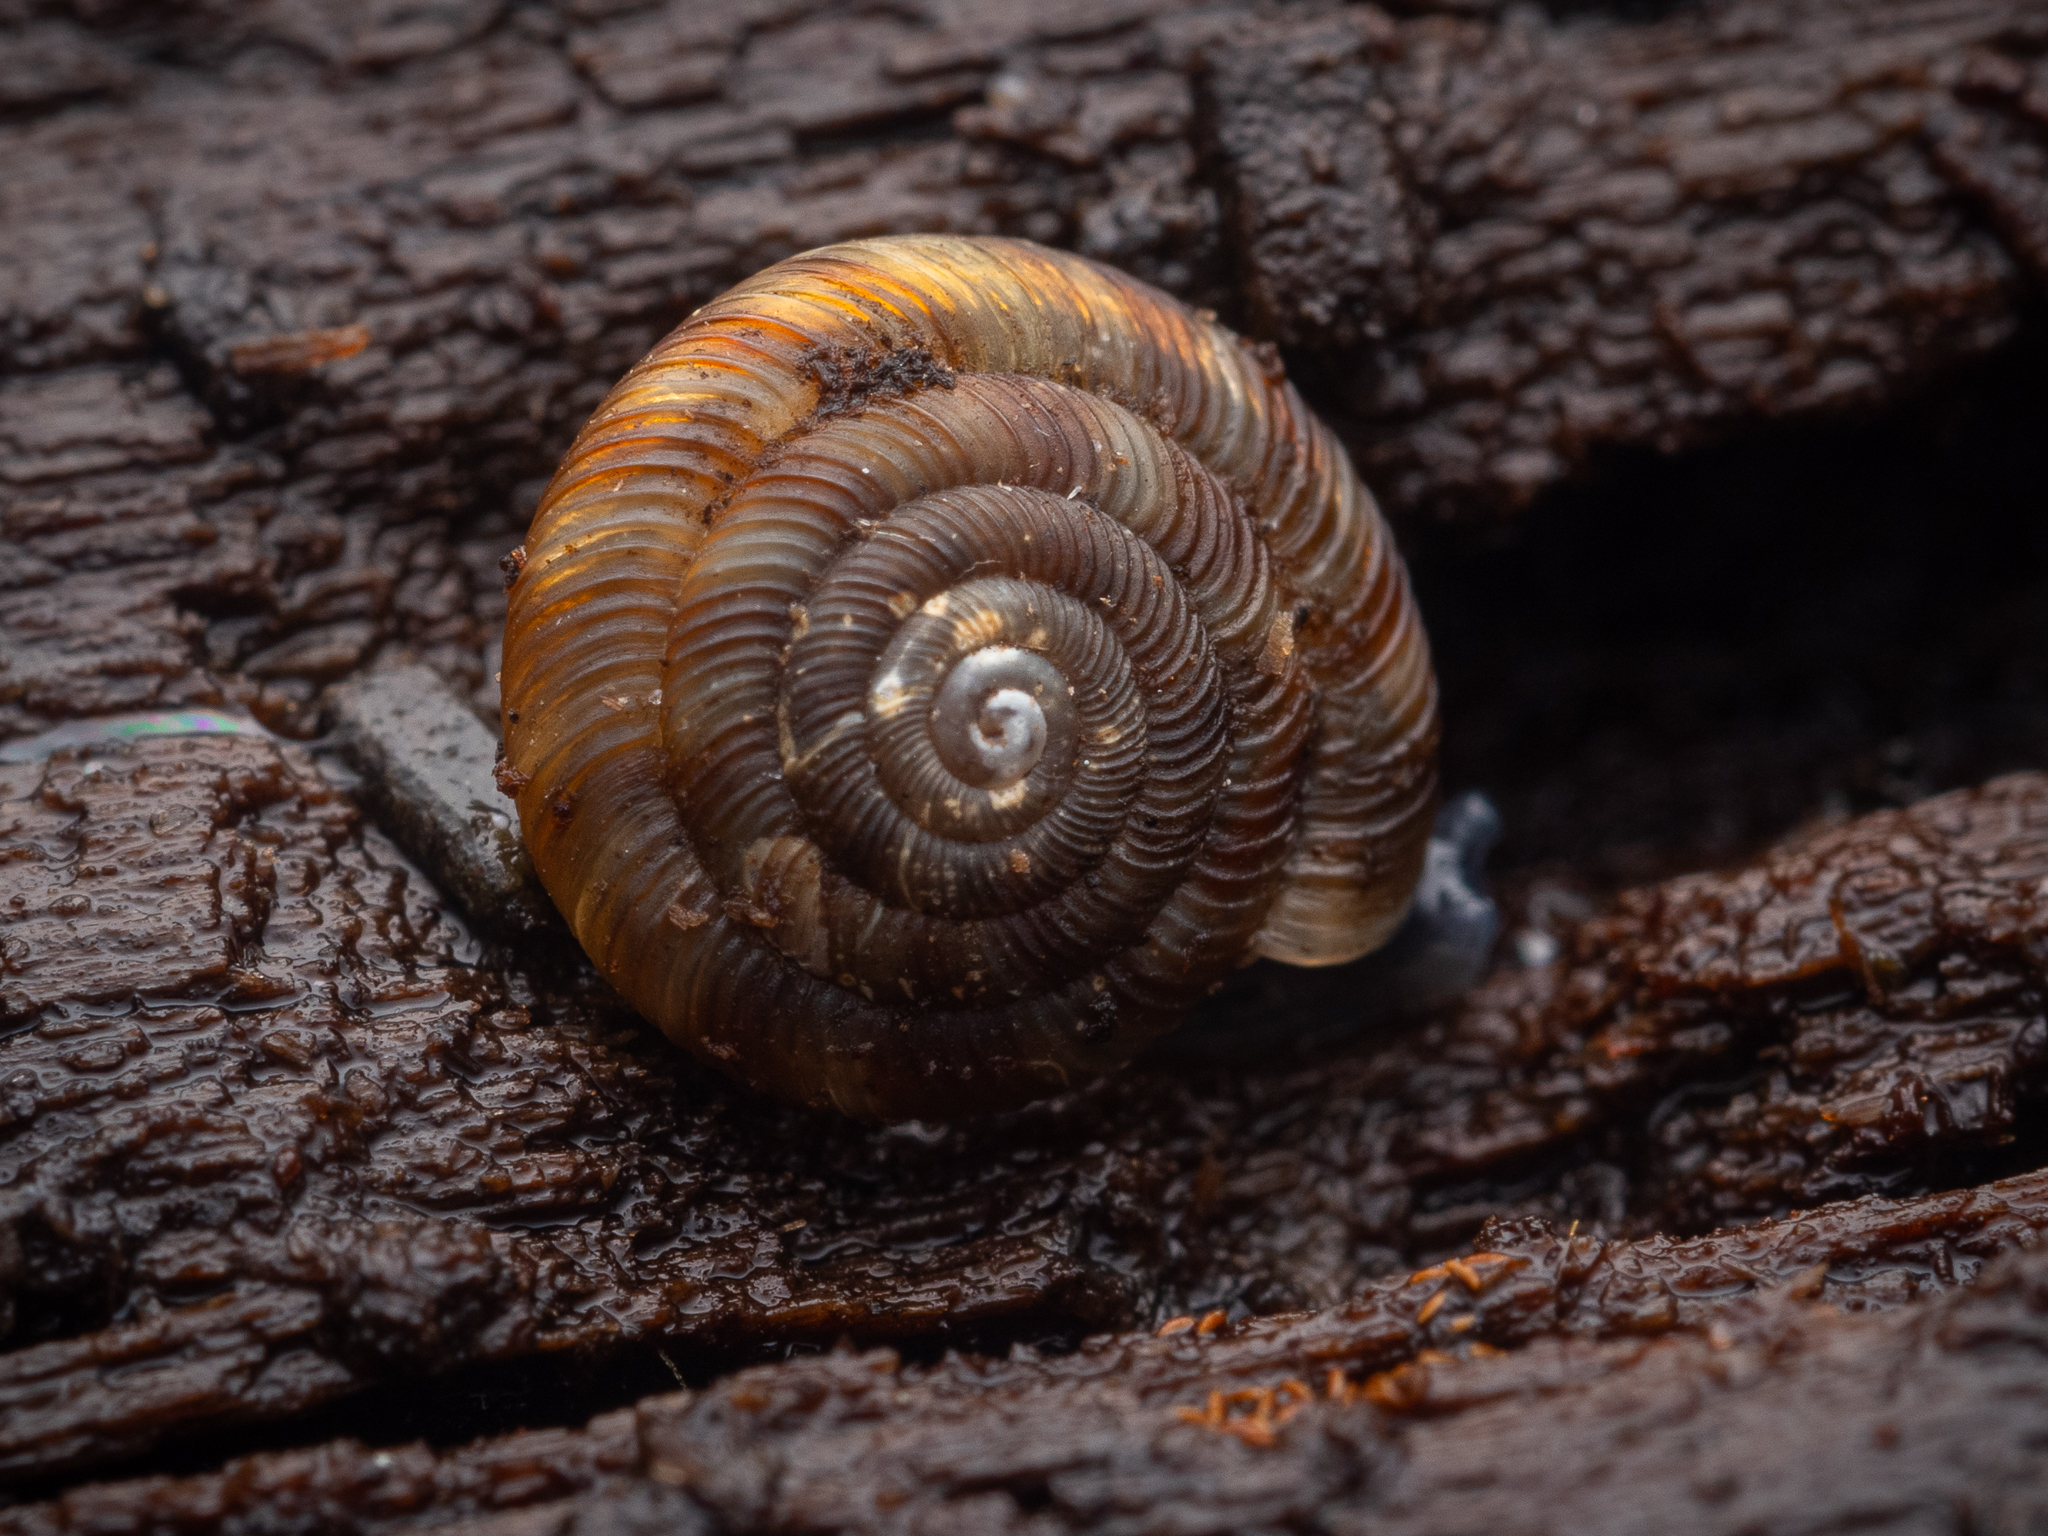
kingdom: Animalia
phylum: Mollusca
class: Gastropoda
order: Stylommatophora
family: Discidae
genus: Discus
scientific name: Discus rotundatus
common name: Rounded snail
